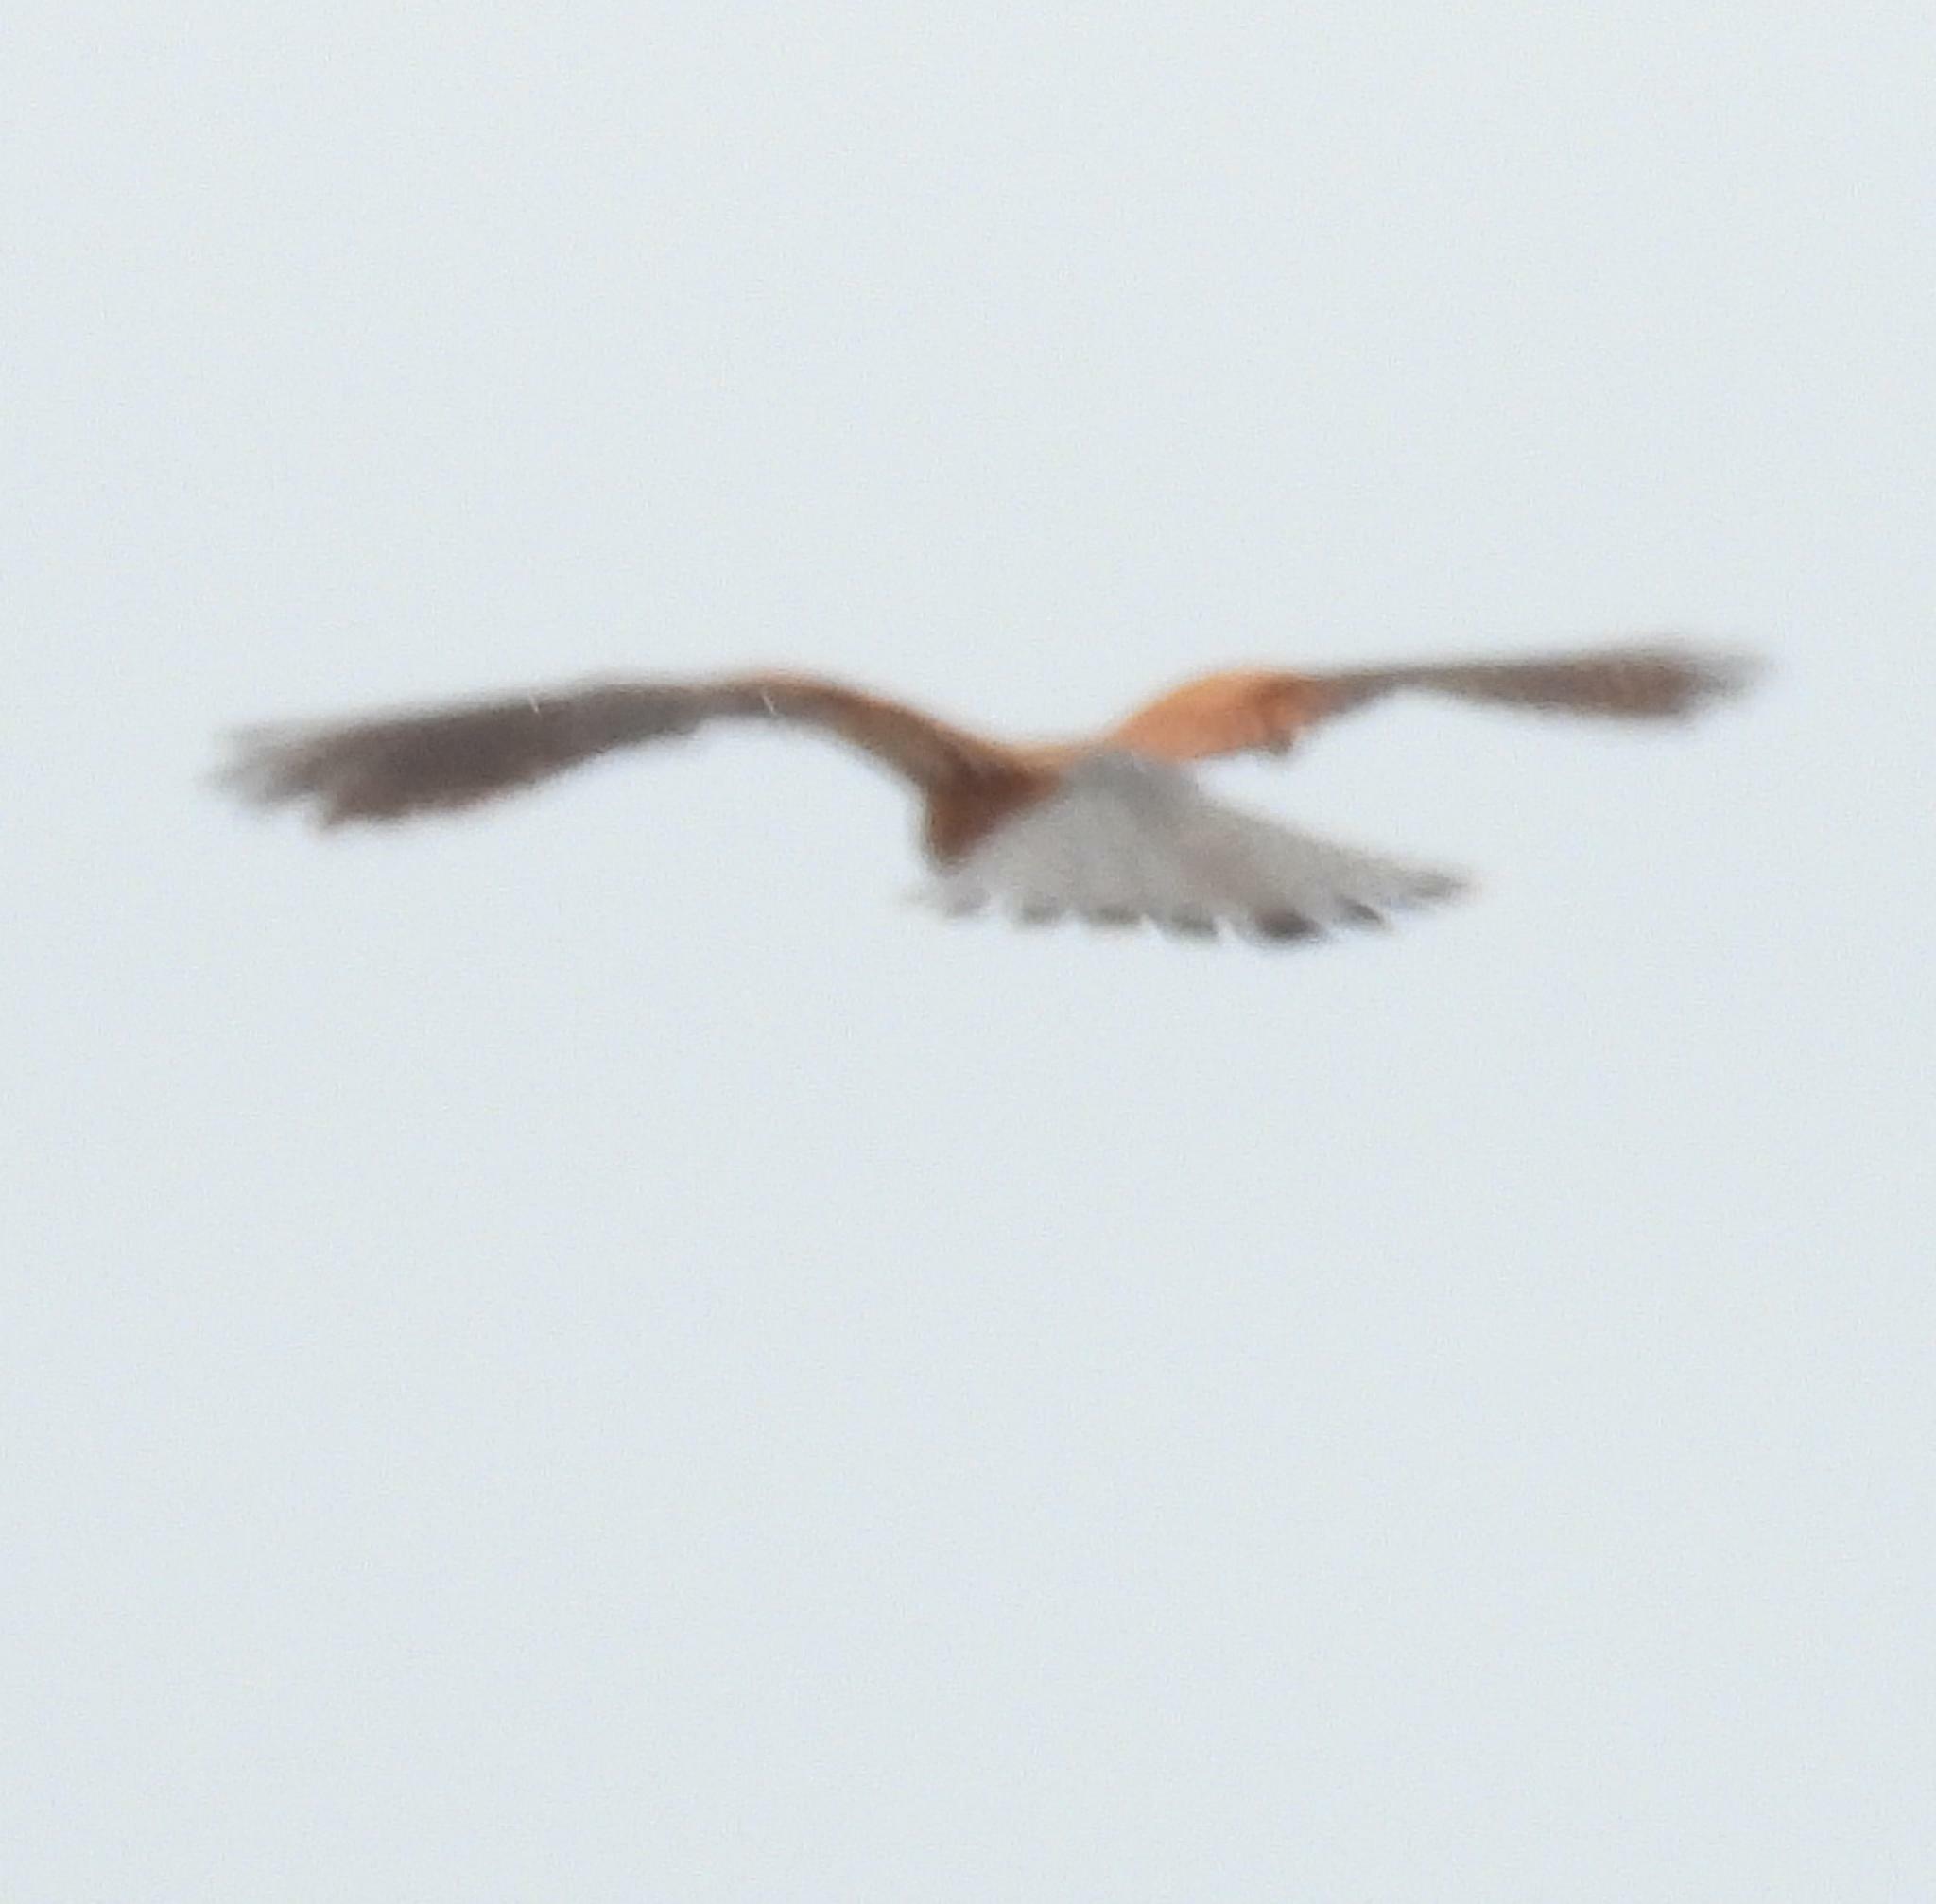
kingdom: Animalia
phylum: Chordata
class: Aves
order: Falconiformes
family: Falconidae
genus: Falco
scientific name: Falco rupicolus
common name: Rock kestrel
